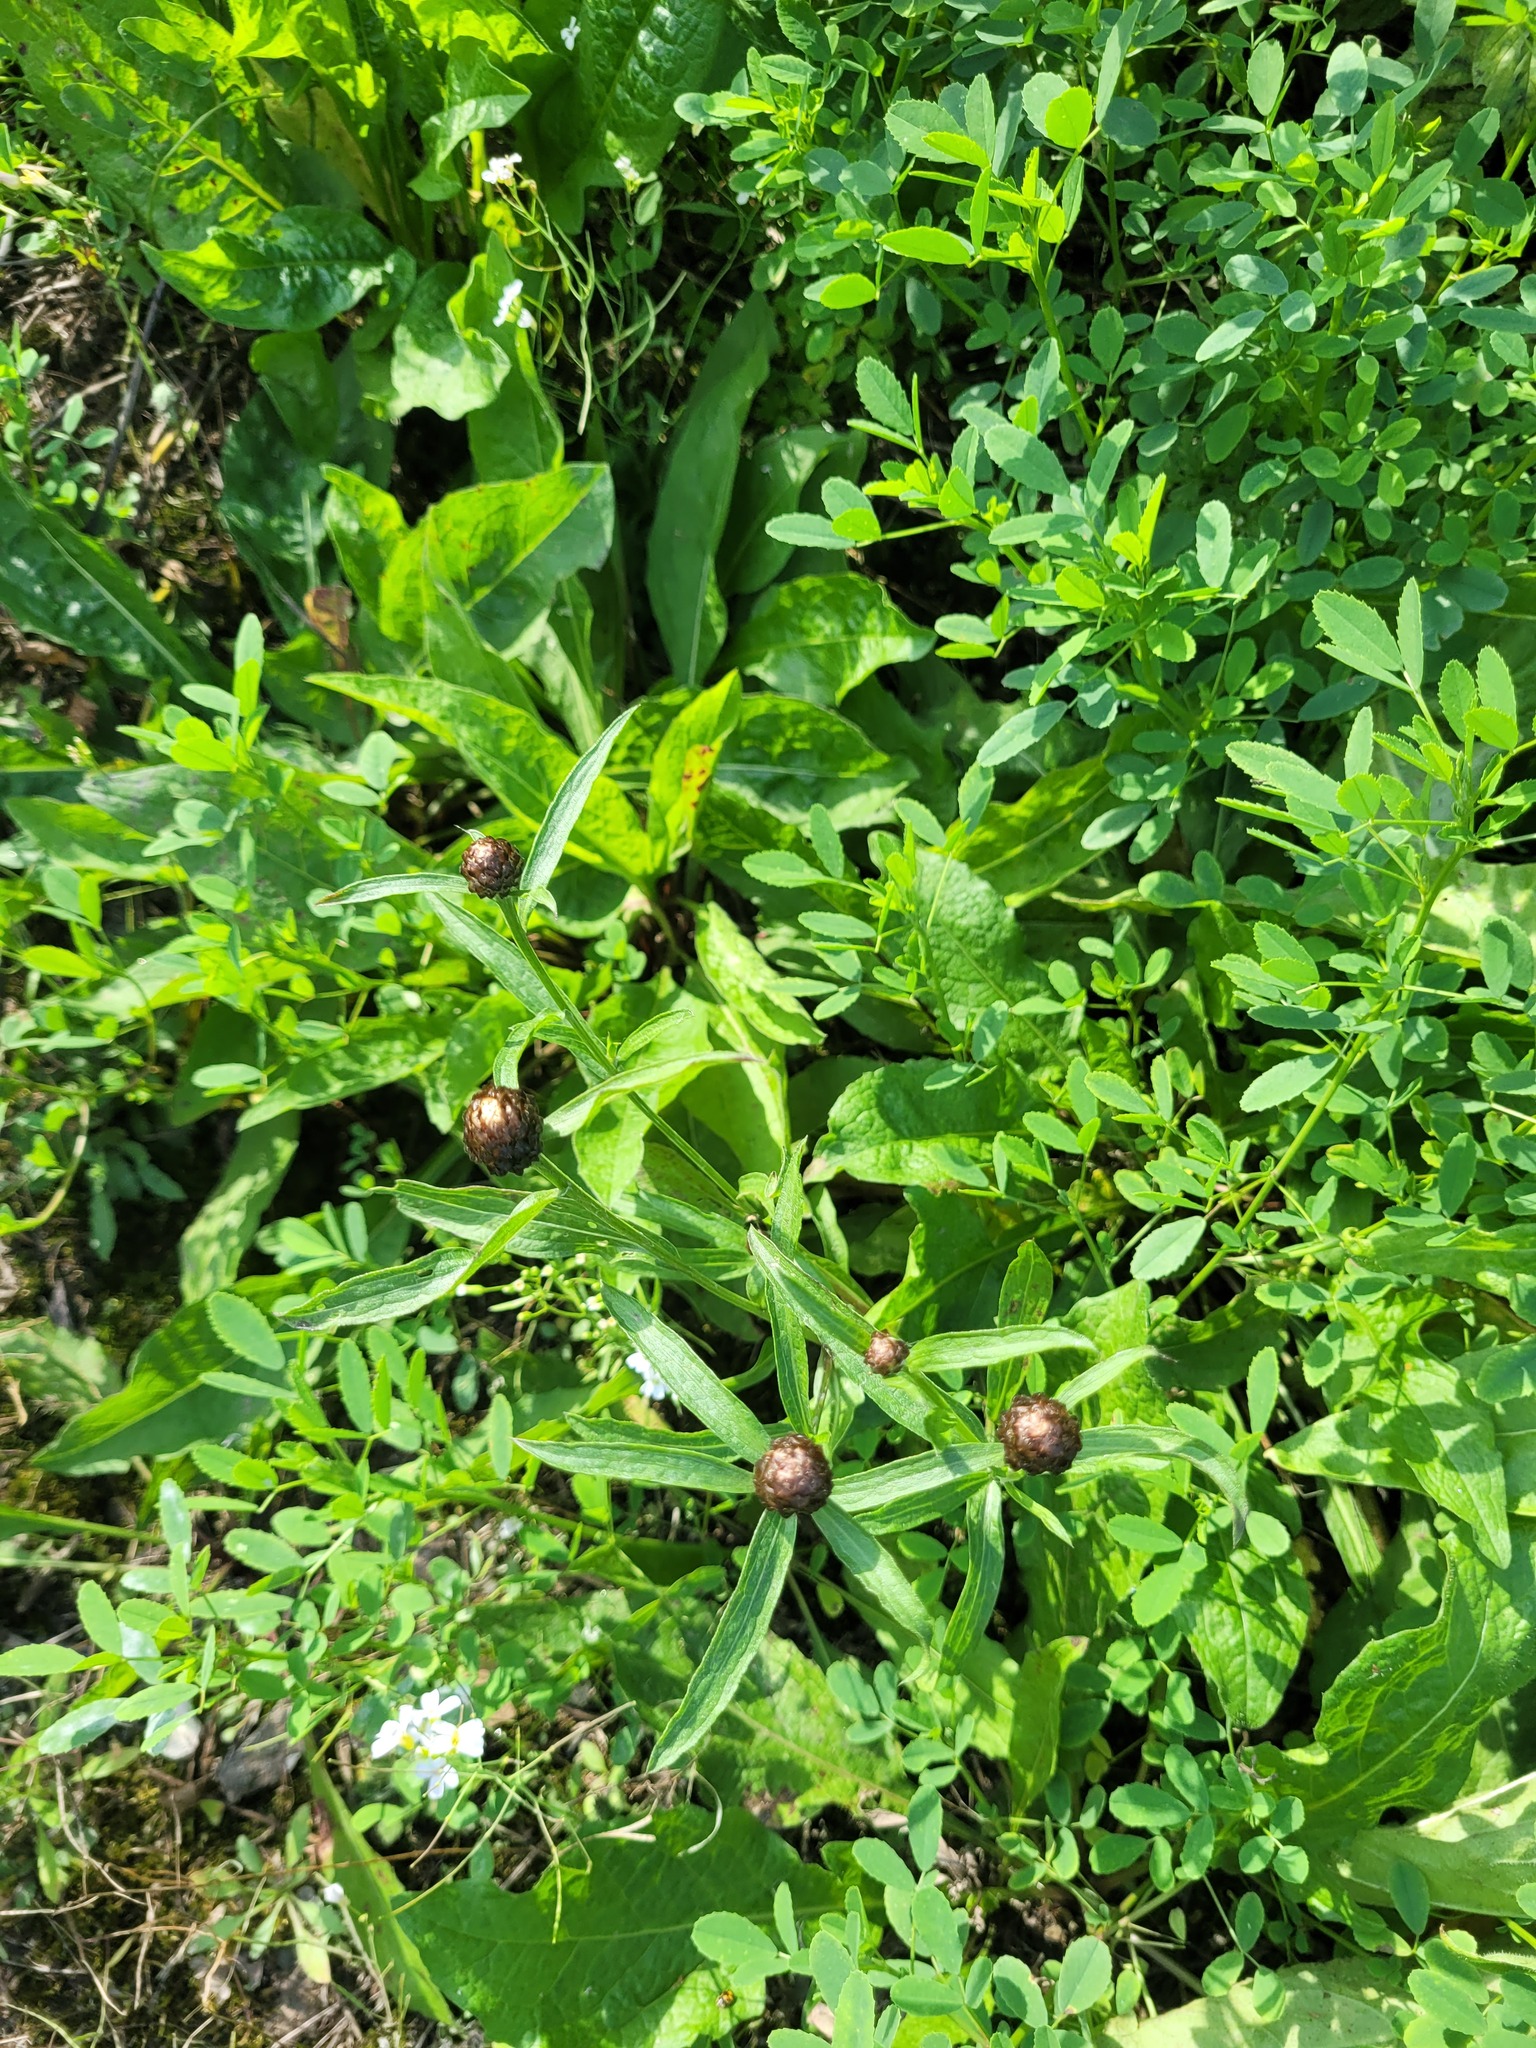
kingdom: Plantae
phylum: Tracheophyta
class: Magnoliopsida
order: Asterales
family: Asteraceae
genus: Centaurea
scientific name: Centaurea jacea
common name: Brown knapweed
